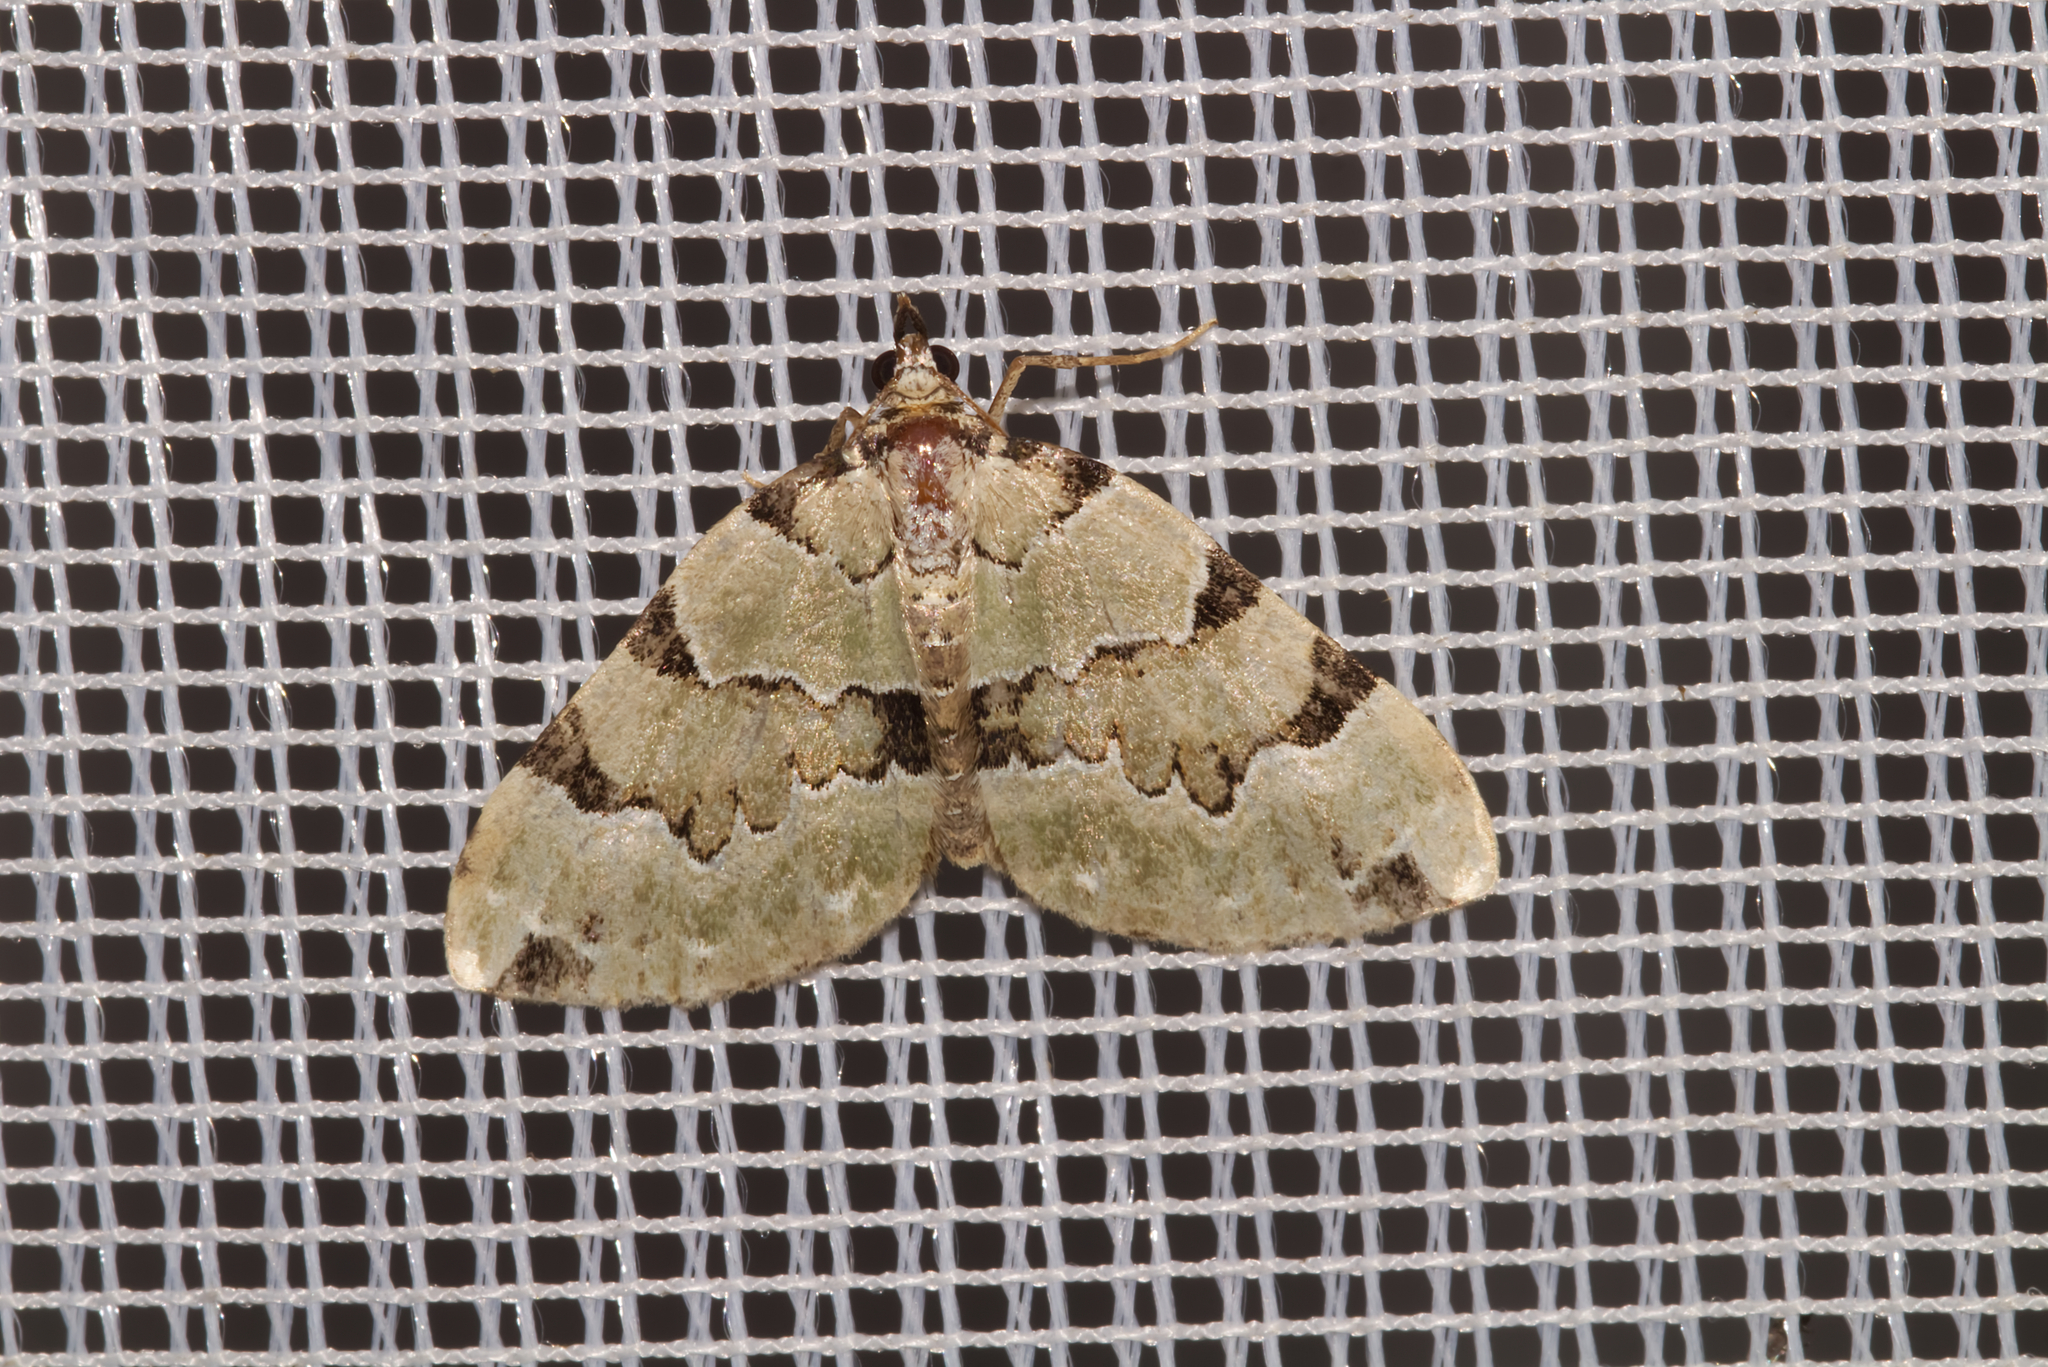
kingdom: Animalia
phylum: Arthropoda
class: Insecta
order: Lepidoptera
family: Geometridae
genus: Colostygia
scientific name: Colostygia pectinataria
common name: Green carpet
